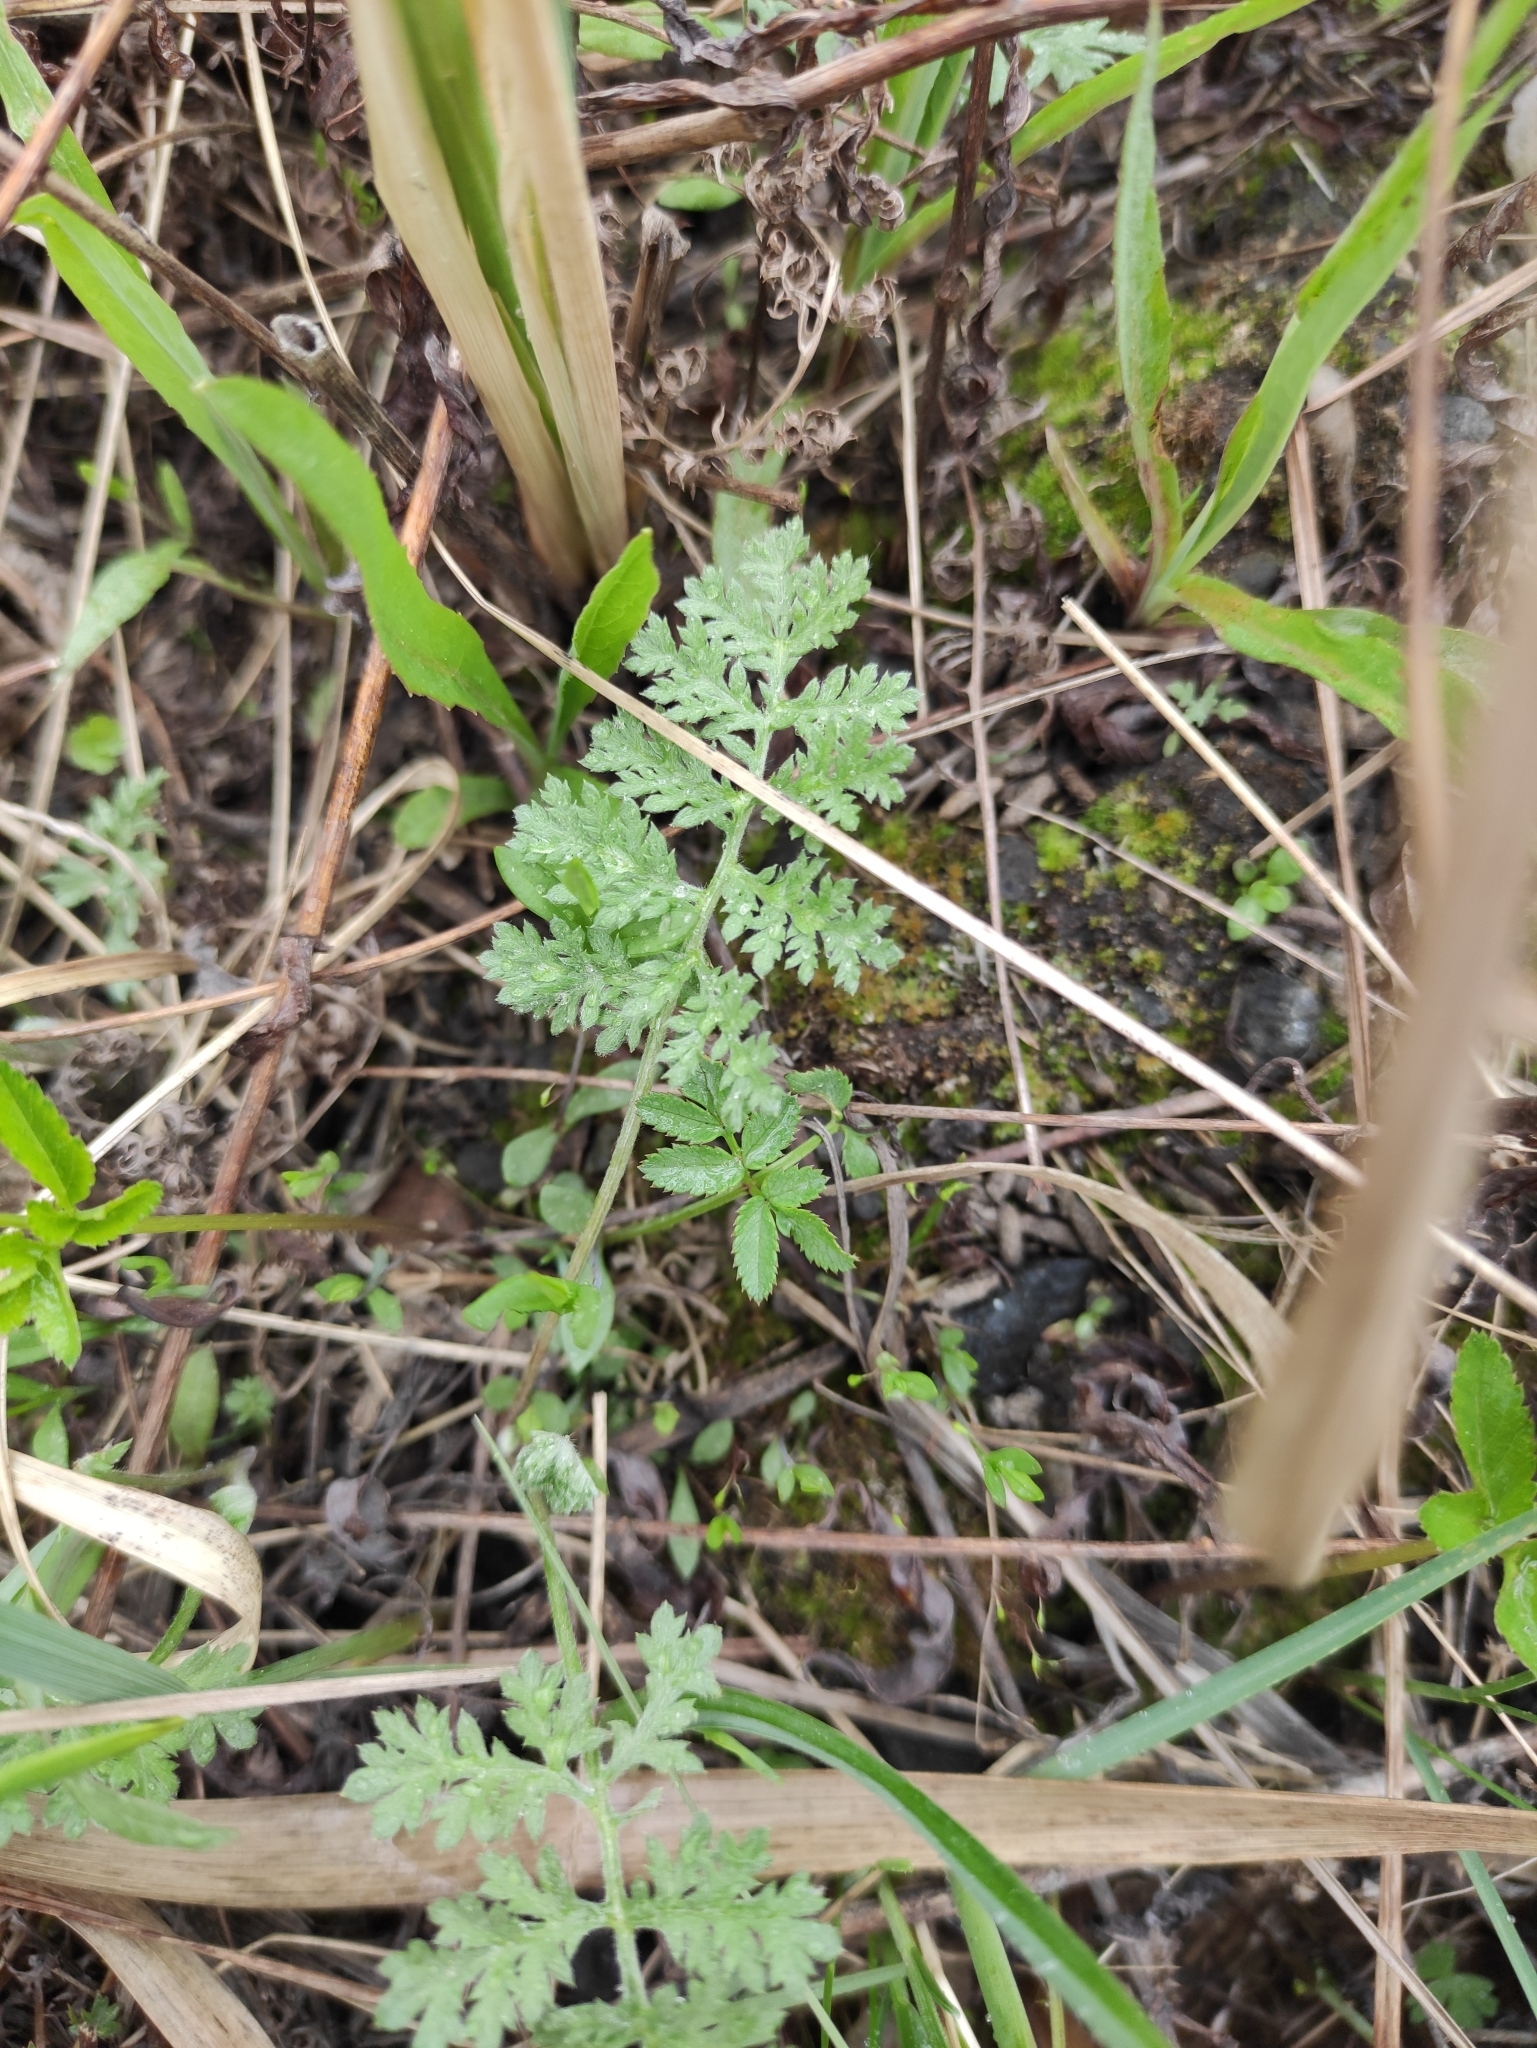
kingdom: Plantae
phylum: Tracheophyta
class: Magnoliopsida
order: Asterales
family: Asteraceae
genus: Artemisia
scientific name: Artemisia tanacetifolia
